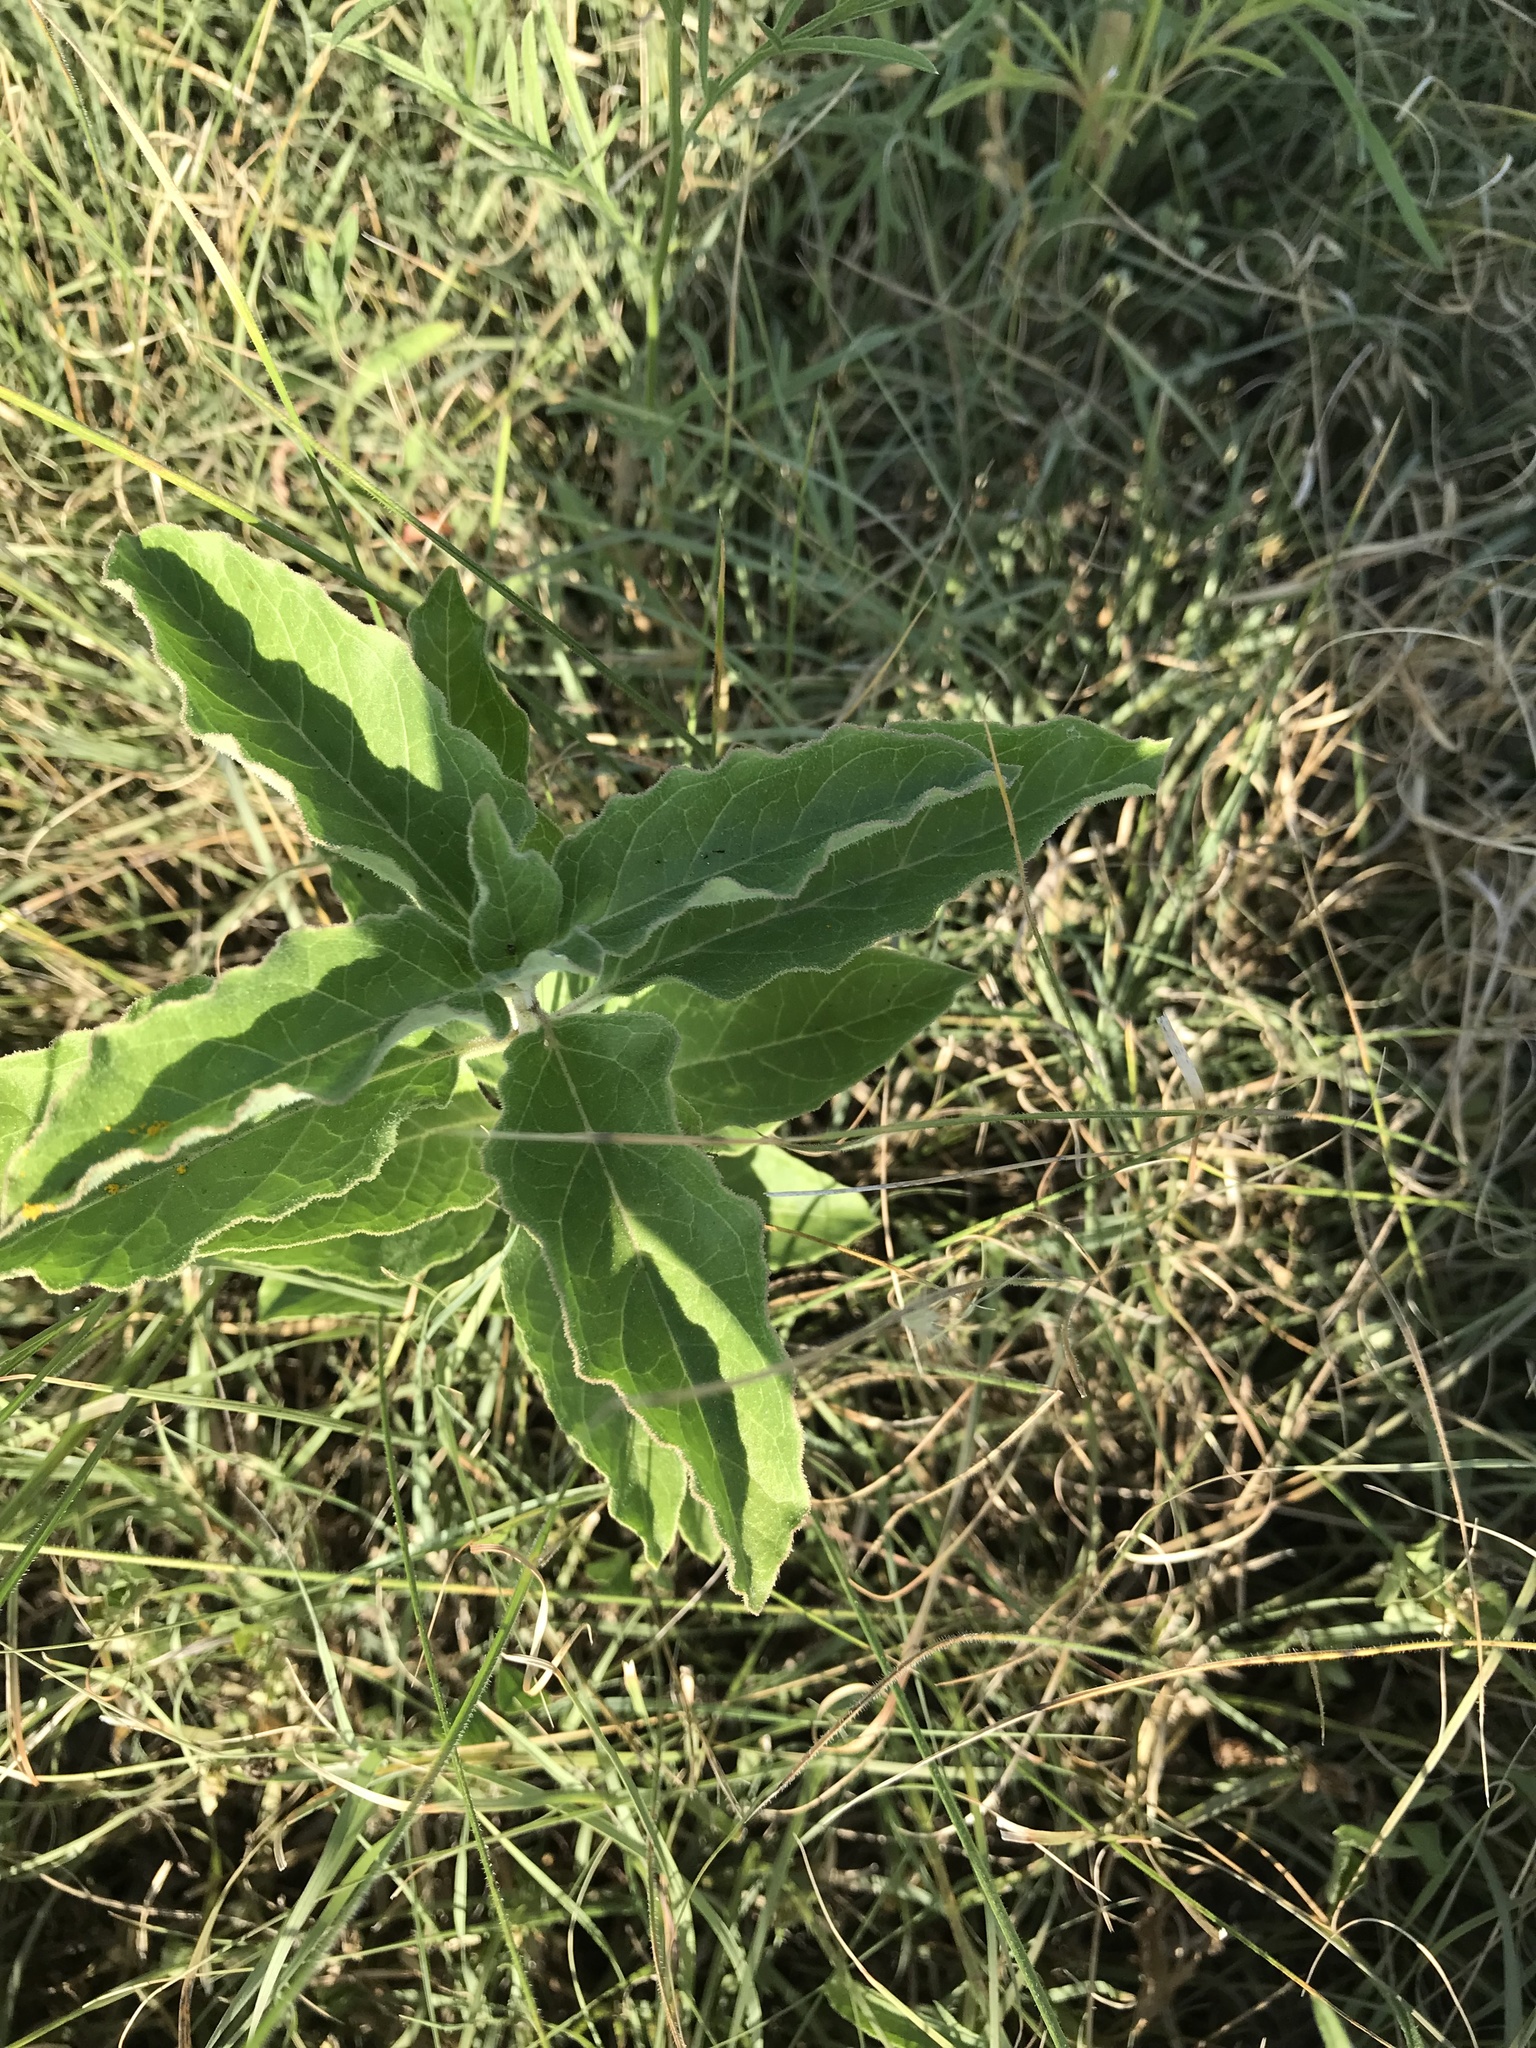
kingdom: Plantae
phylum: Tracheophyta
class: Magnoliopsida
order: Gentianales
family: Apocynaceae
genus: Asclepias
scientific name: Asclepias oenotheroides
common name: Zizotes milkweed
